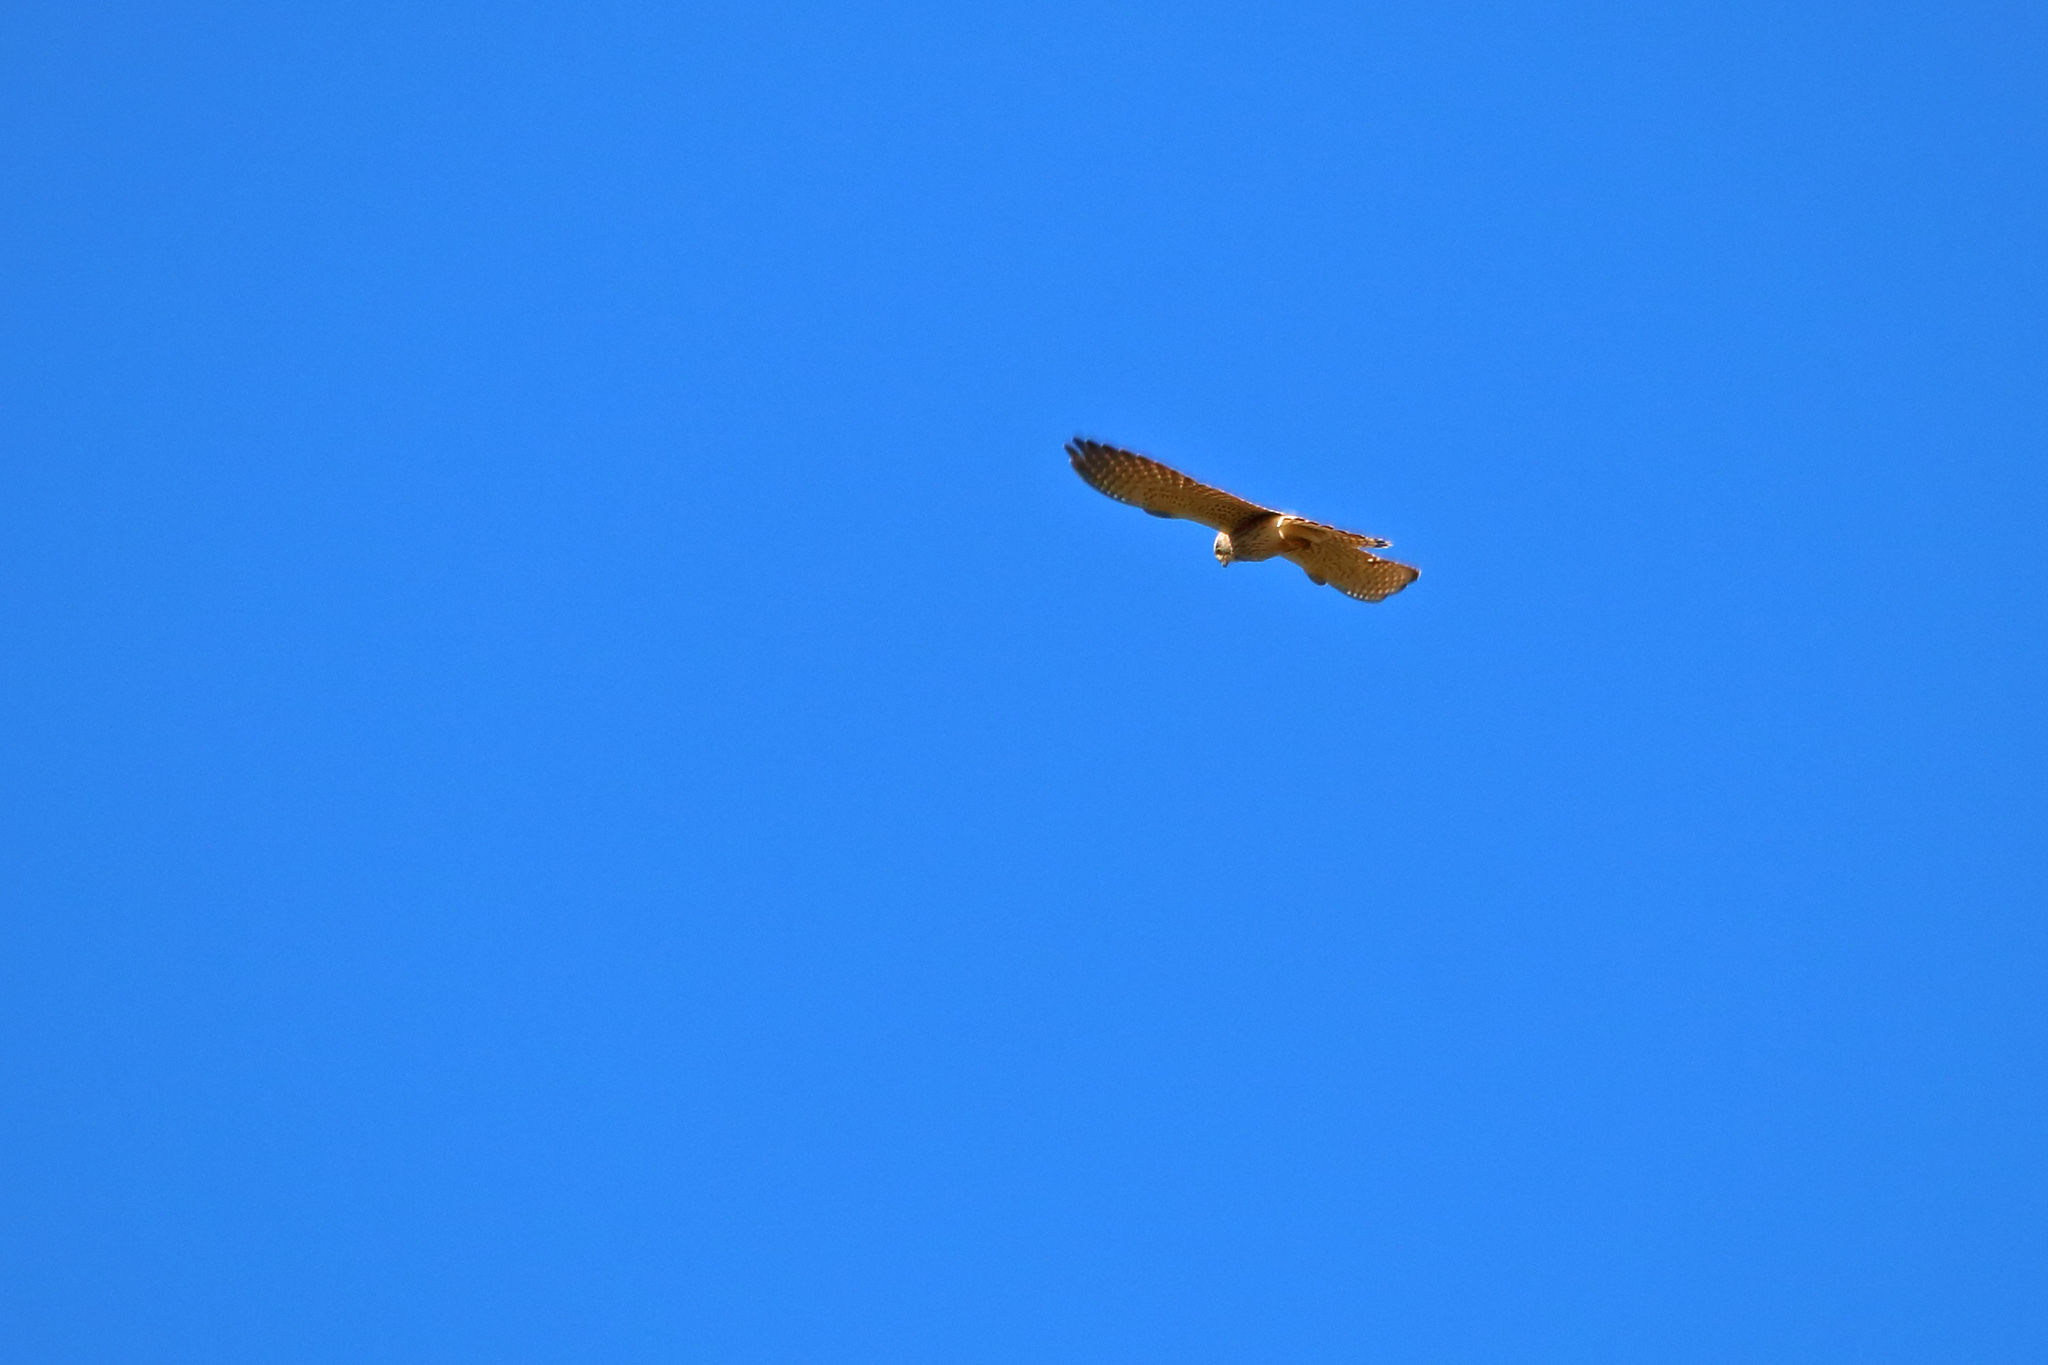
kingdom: Animalia
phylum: Chordata
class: Aves
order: Falconiformes
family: Falconidae
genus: Falco
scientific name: Falco tinnunculus
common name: Common kestrel
